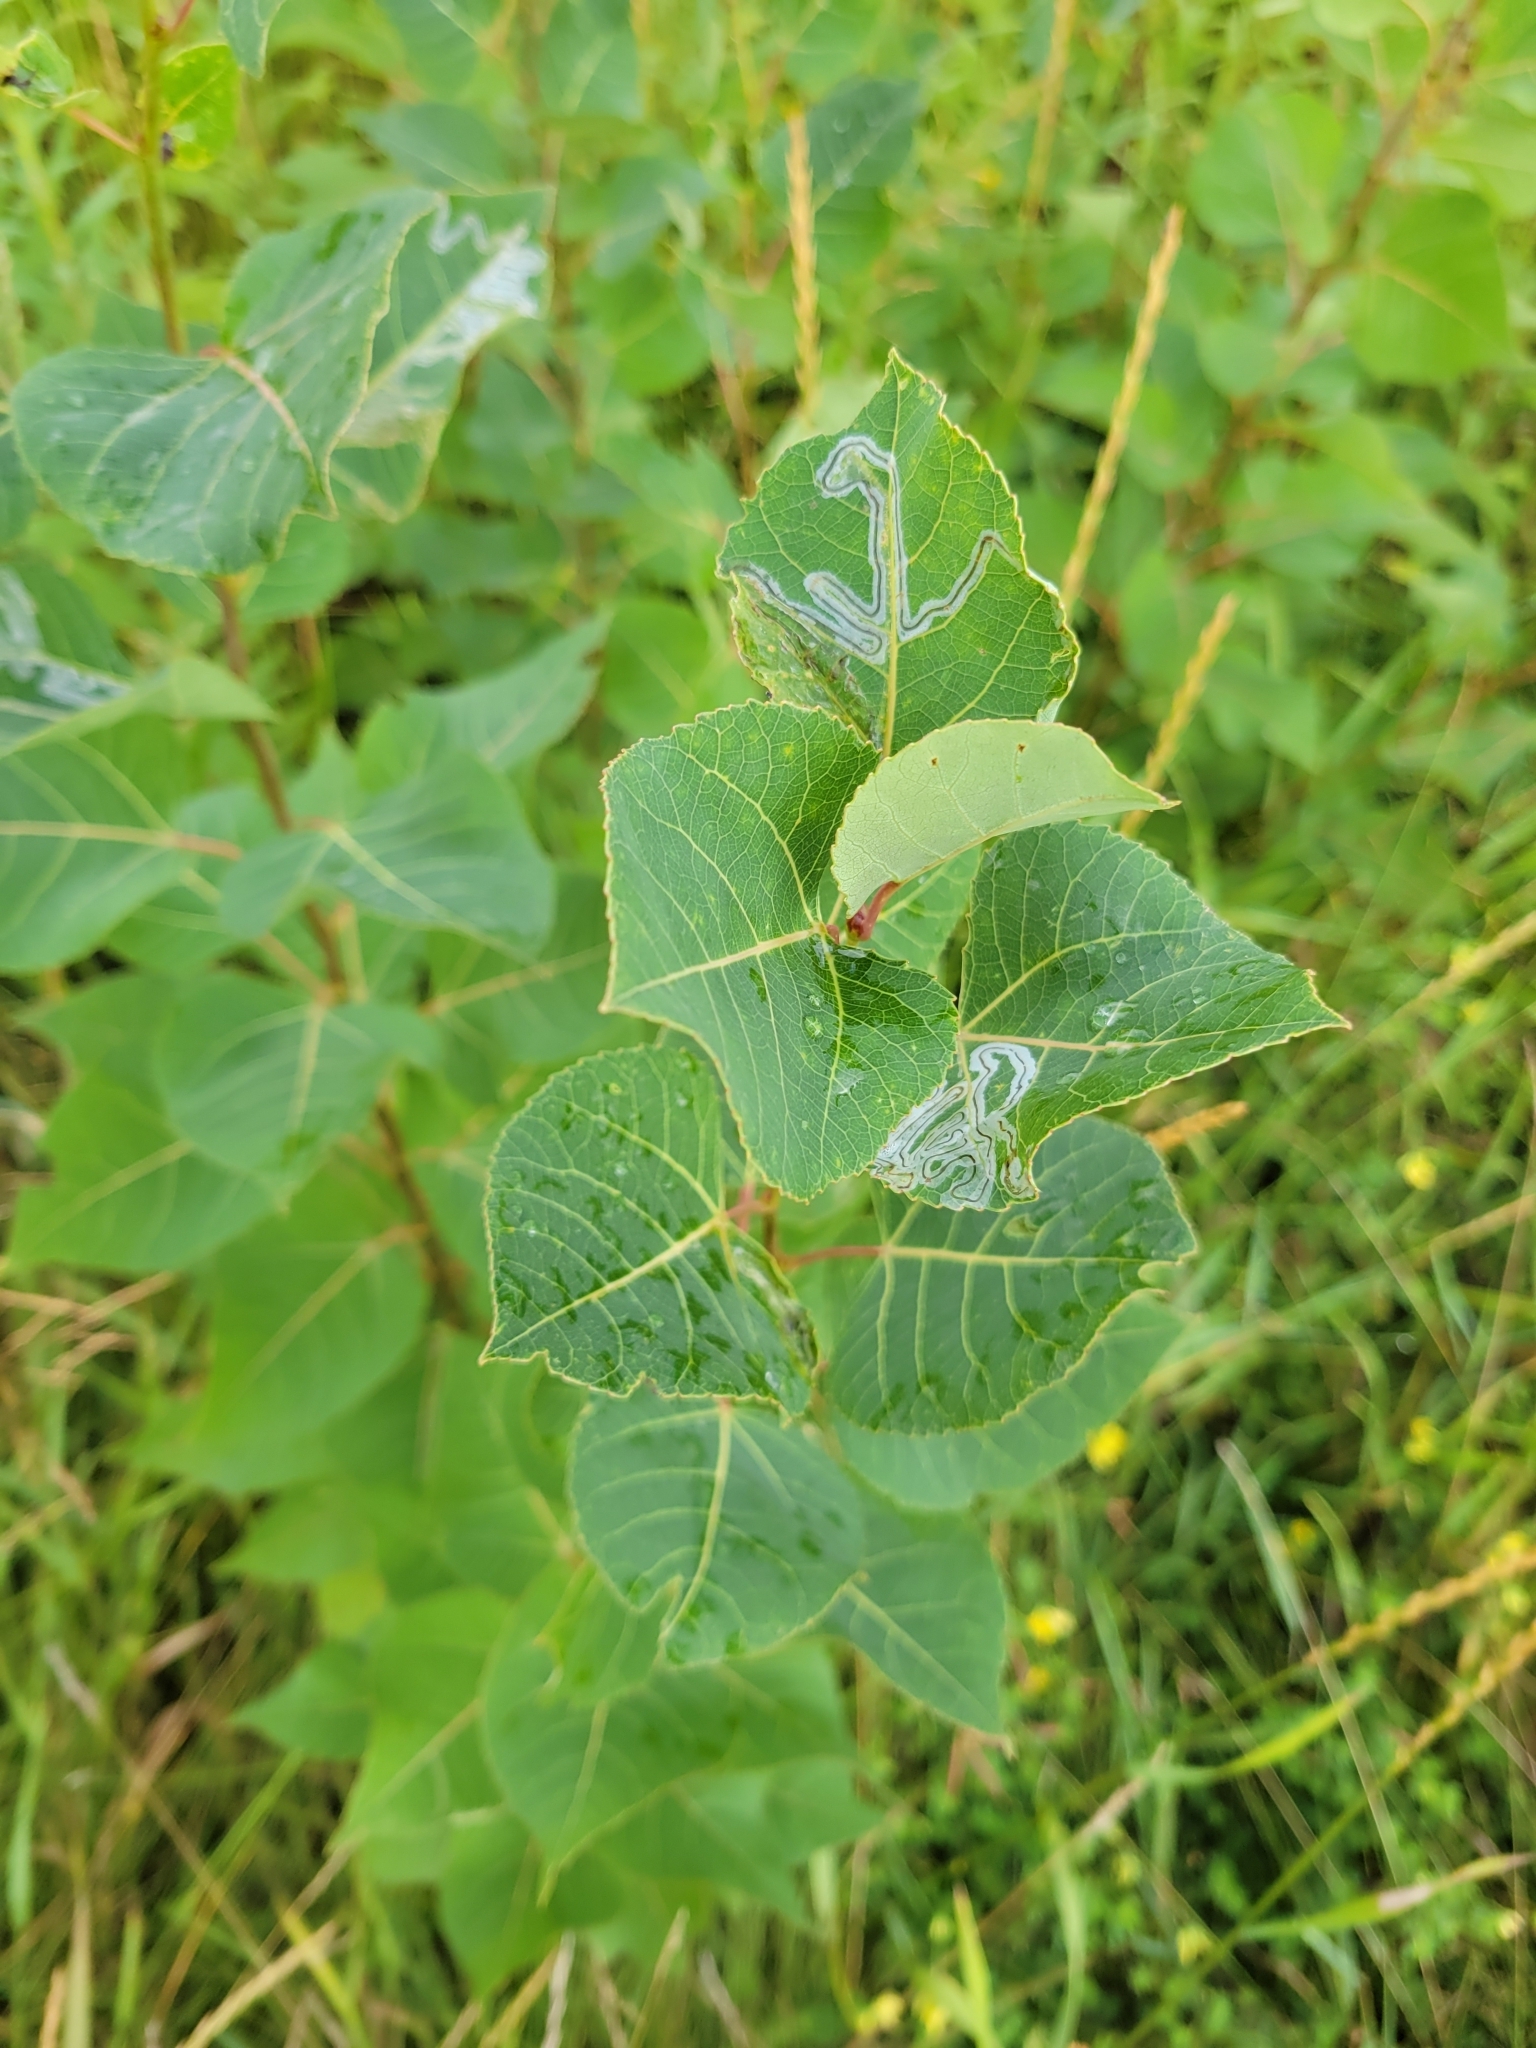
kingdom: Animalia
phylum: Arthropoda
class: Insecta
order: Lepidoptera
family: Gracillariidae
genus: Phyllocnistis
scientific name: Phyllocnistis populiella
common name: Aspen serpentine leafminer moth
